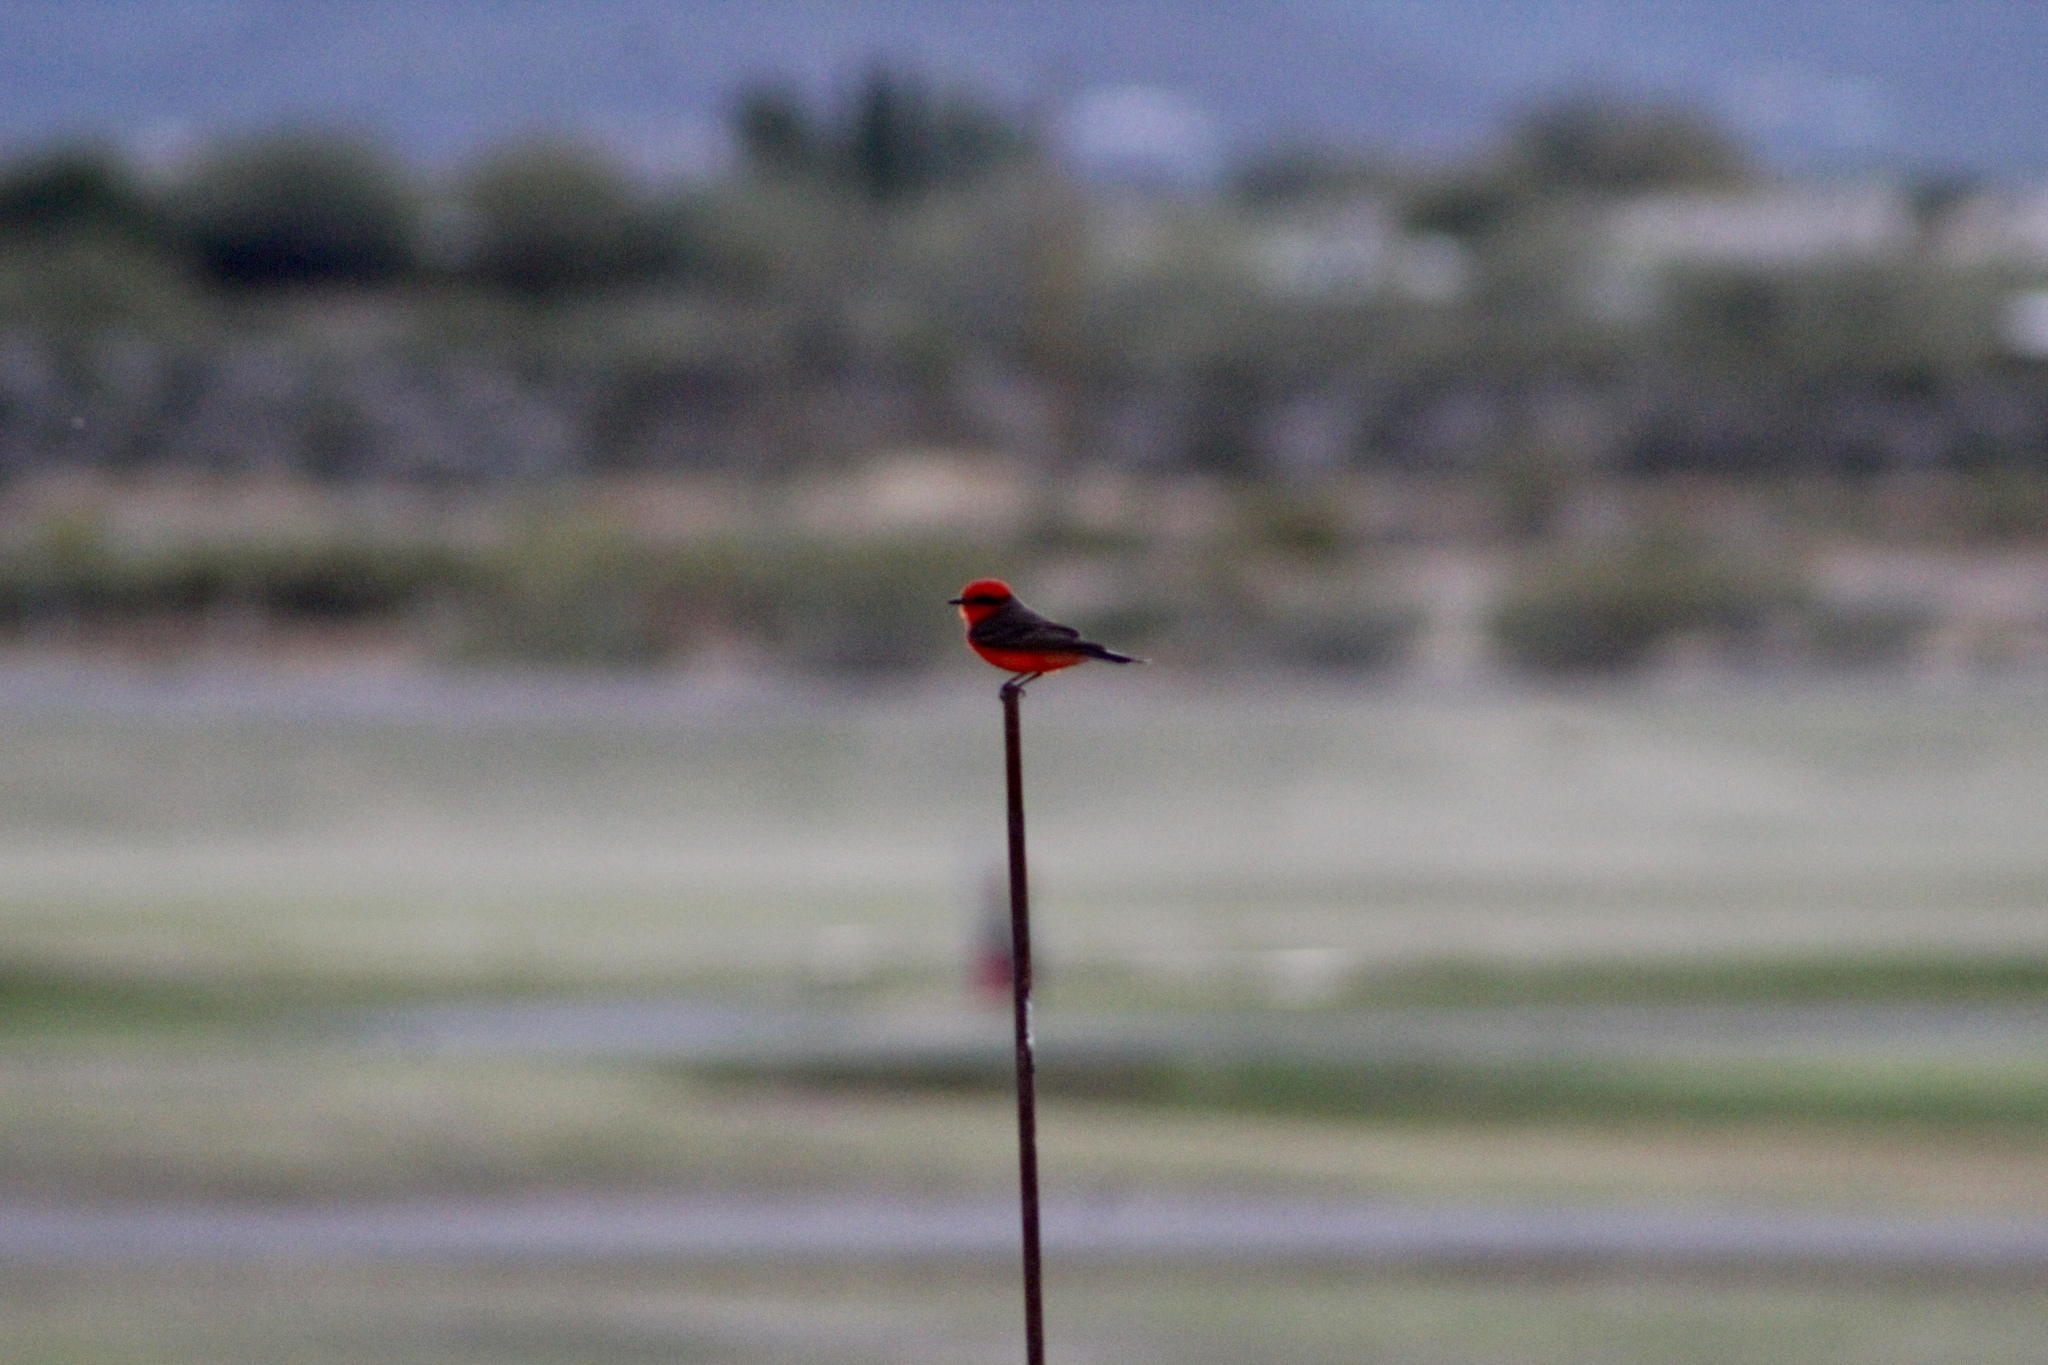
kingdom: Animalia
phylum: Chordata
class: Aves
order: Passeriformes
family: Tyrannidae
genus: Pyrocephalus
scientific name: Pyrocephalus rubinus
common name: Vermilion flycatcher
